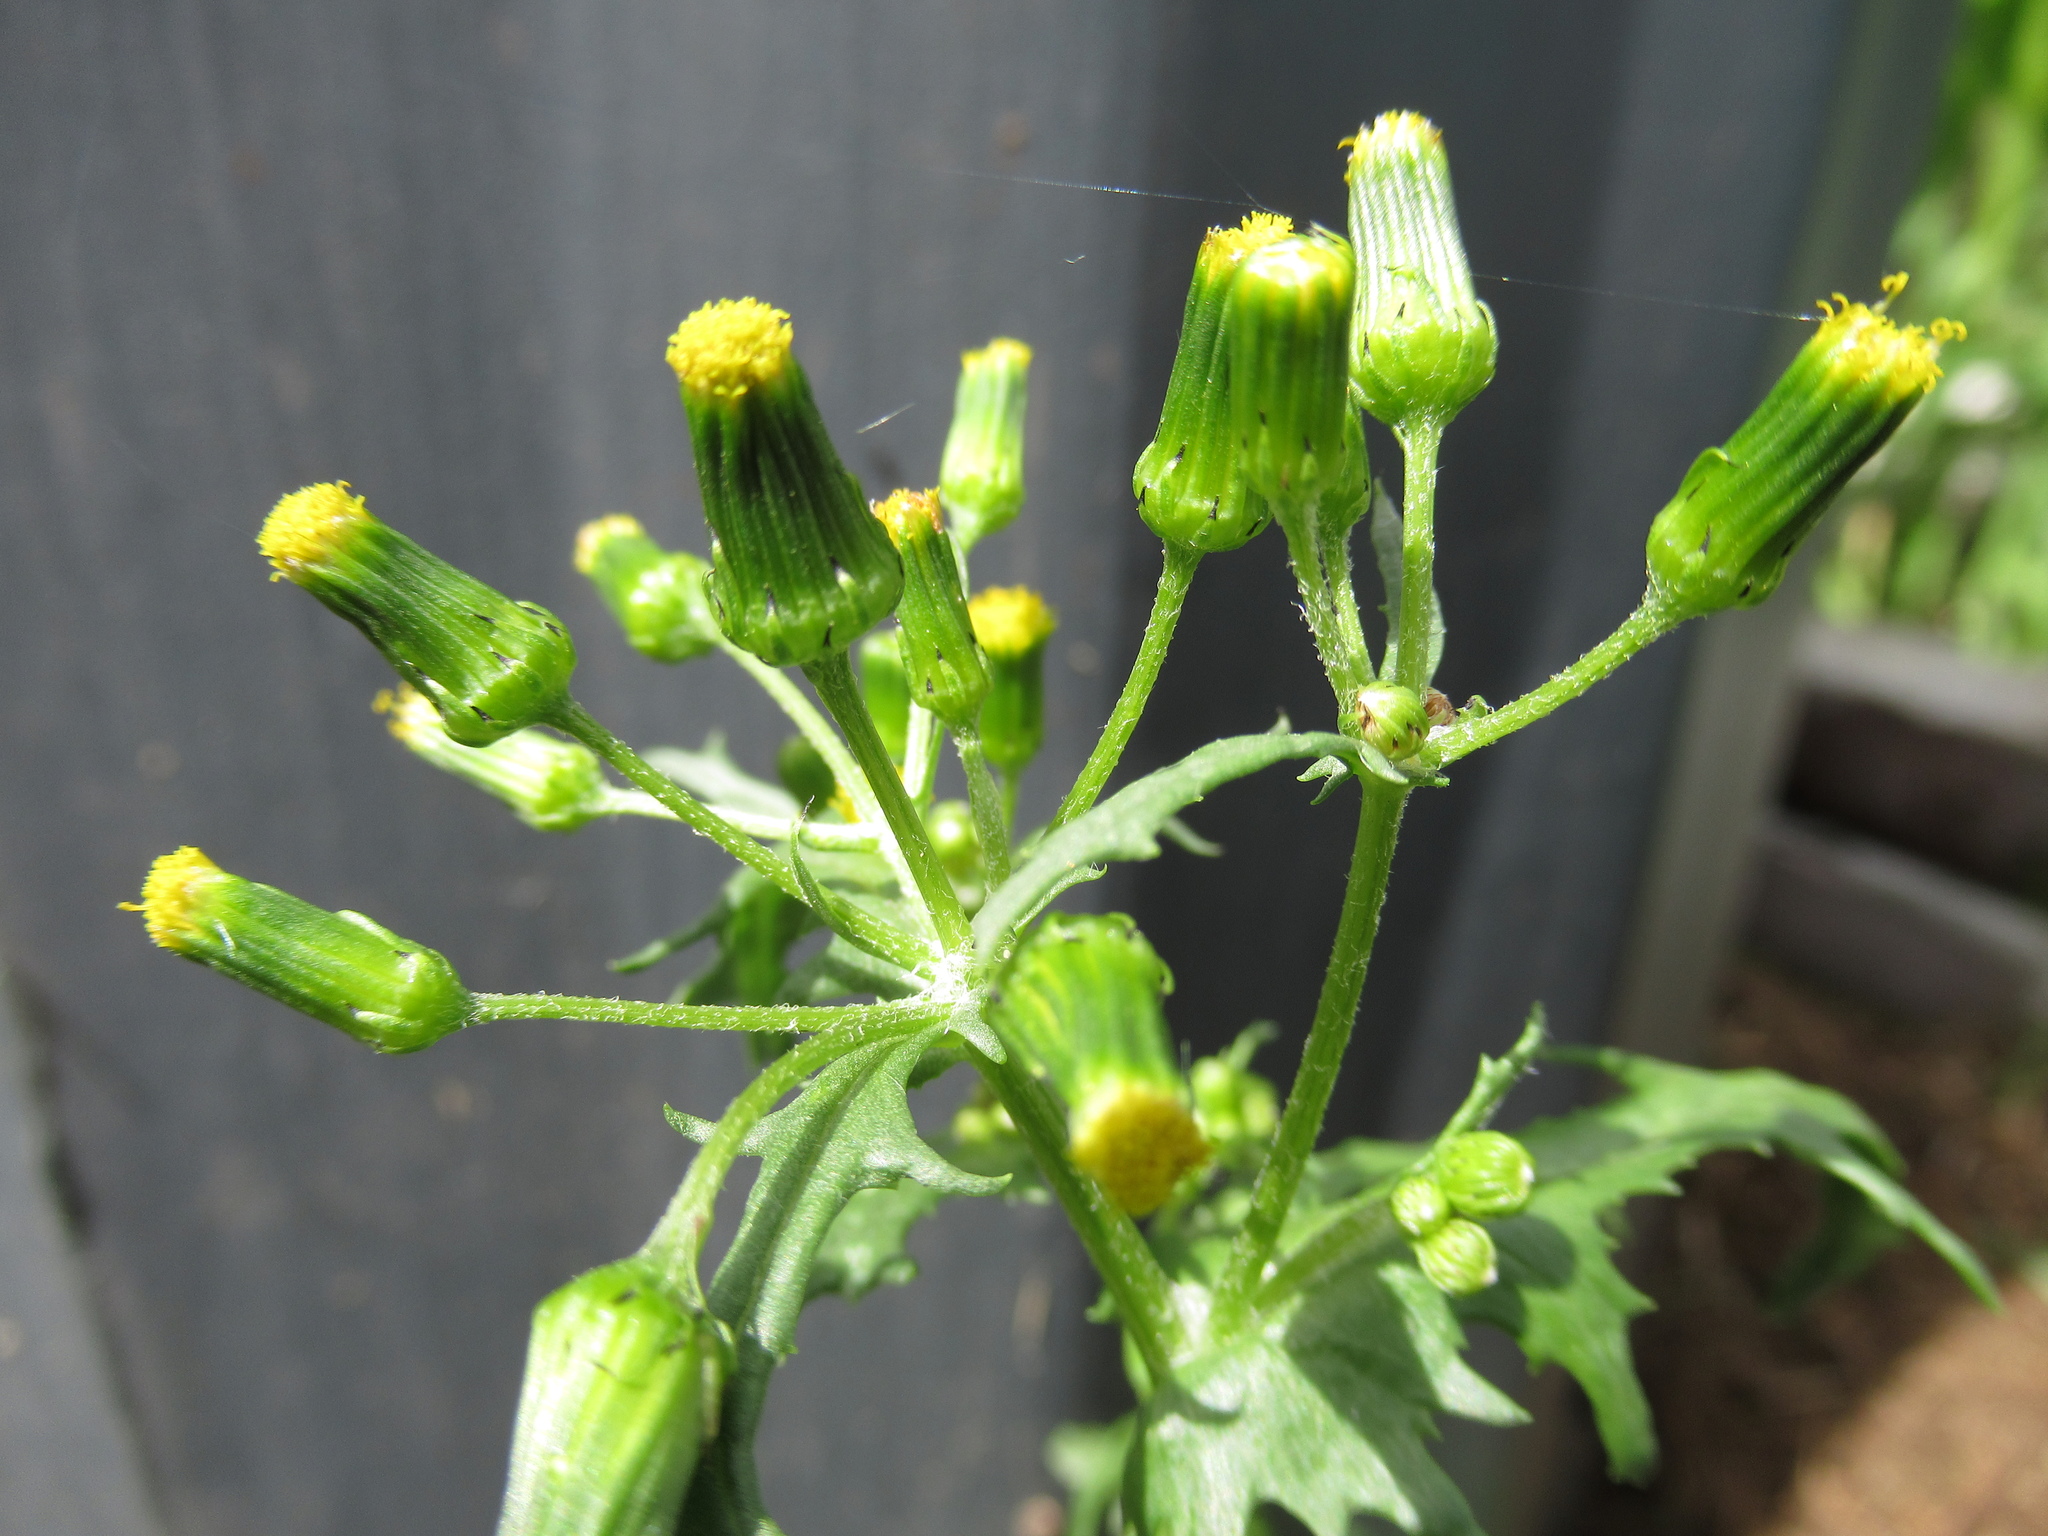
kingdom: Plantae
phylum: Tracheophyta
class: Magnoliopsida
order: Asterales
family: Asteraceae
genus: Senecio
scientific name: Senecio vulgaris
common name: Old-man-in-the-spring
